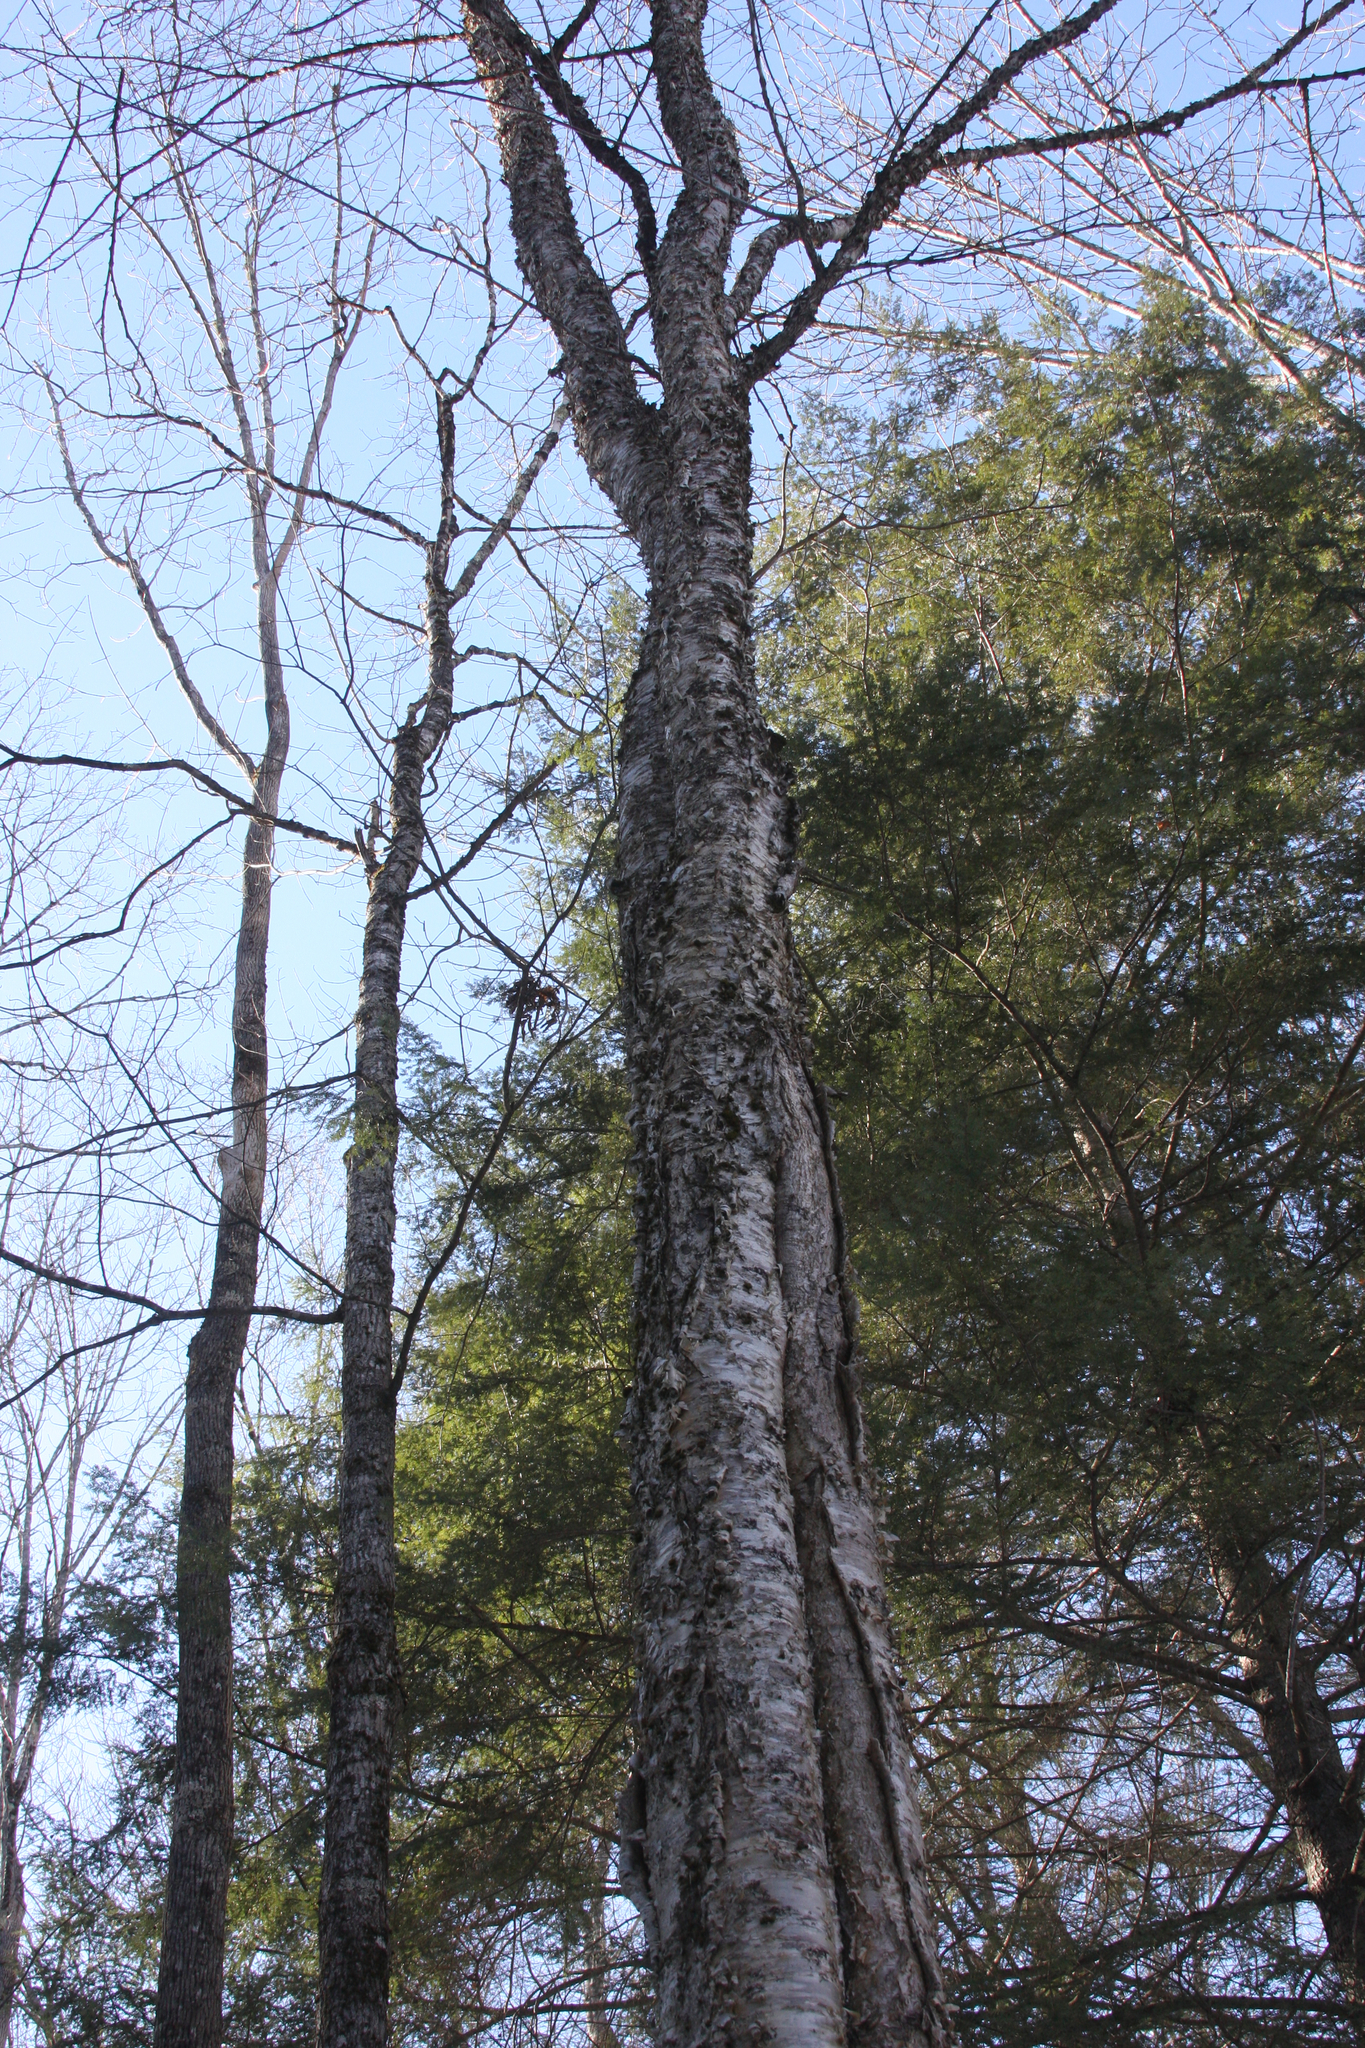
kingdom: Plantae
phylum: Tracheophyta
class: Magnoliopsida
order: Fagales
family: Betulaceae
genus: Betula
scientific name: Betula alleghaniensis
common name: Yellow birch
